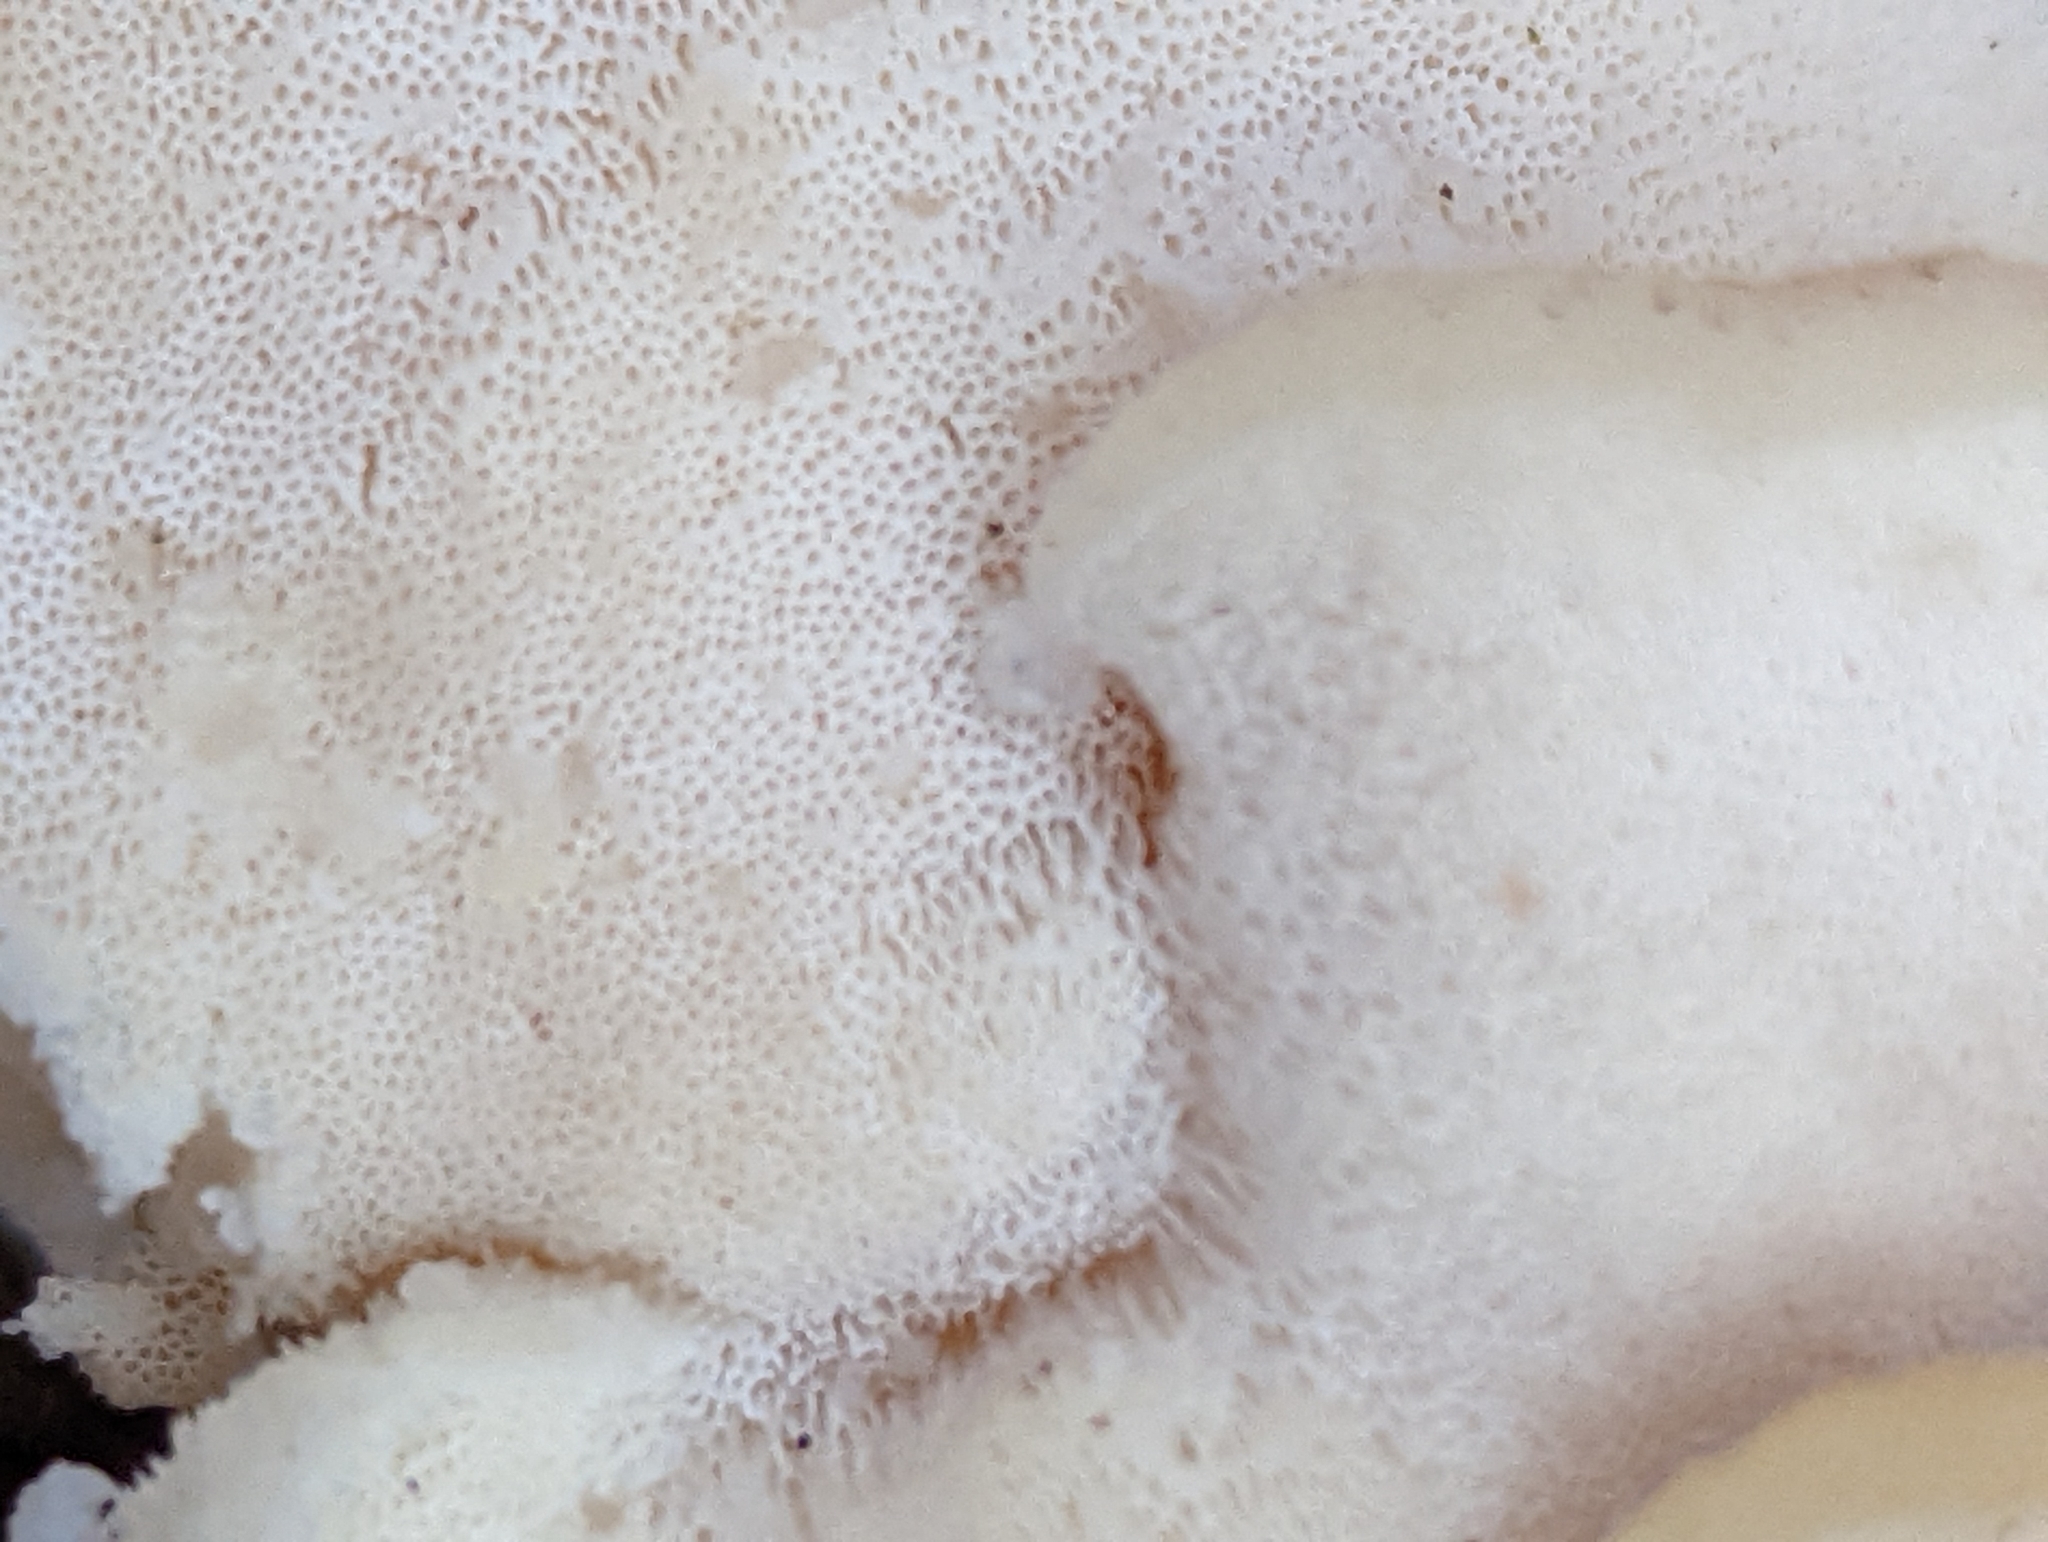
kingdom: Fungi
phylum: Basidiomycota
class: Agaricomycetes
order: Polyporales
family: Incrustoporiaceae
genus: Tyromyces
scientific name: Tyromyces galactinus
